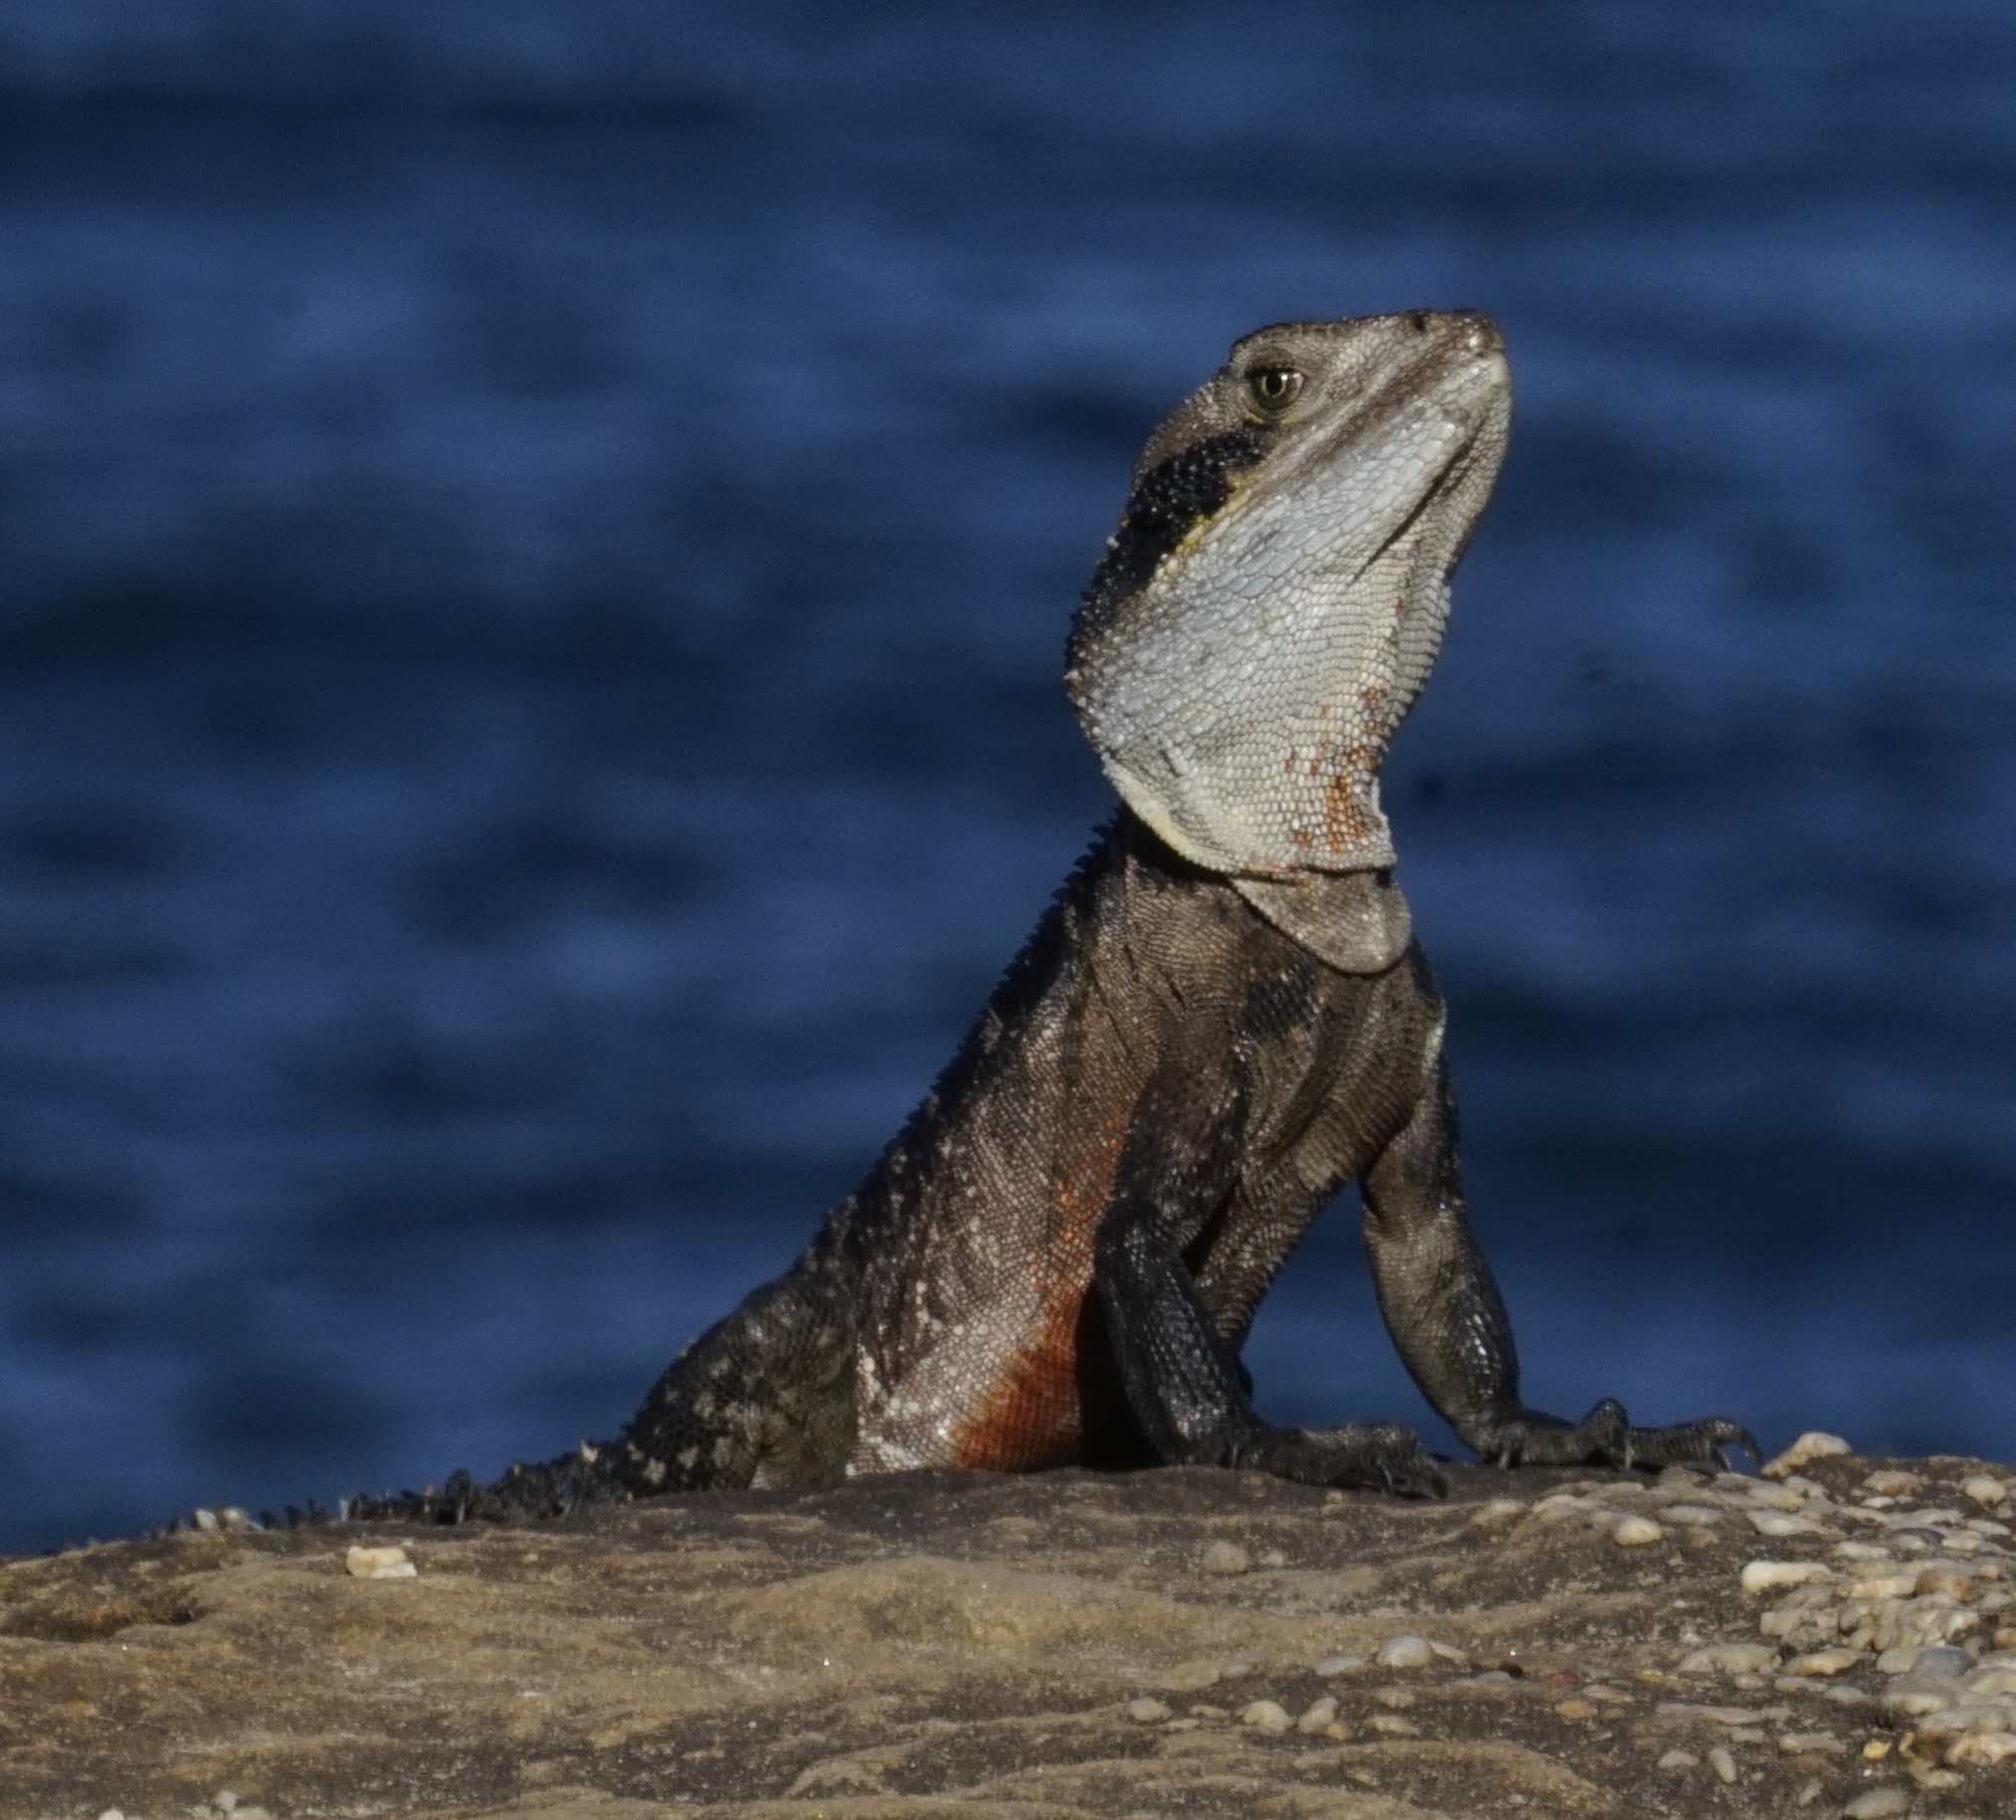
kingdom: Animalia
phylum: Chordata
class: Squamata
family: Agamidae
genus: Intellagama
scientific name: Intellagama lesueurii
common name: Eastern water dragon
